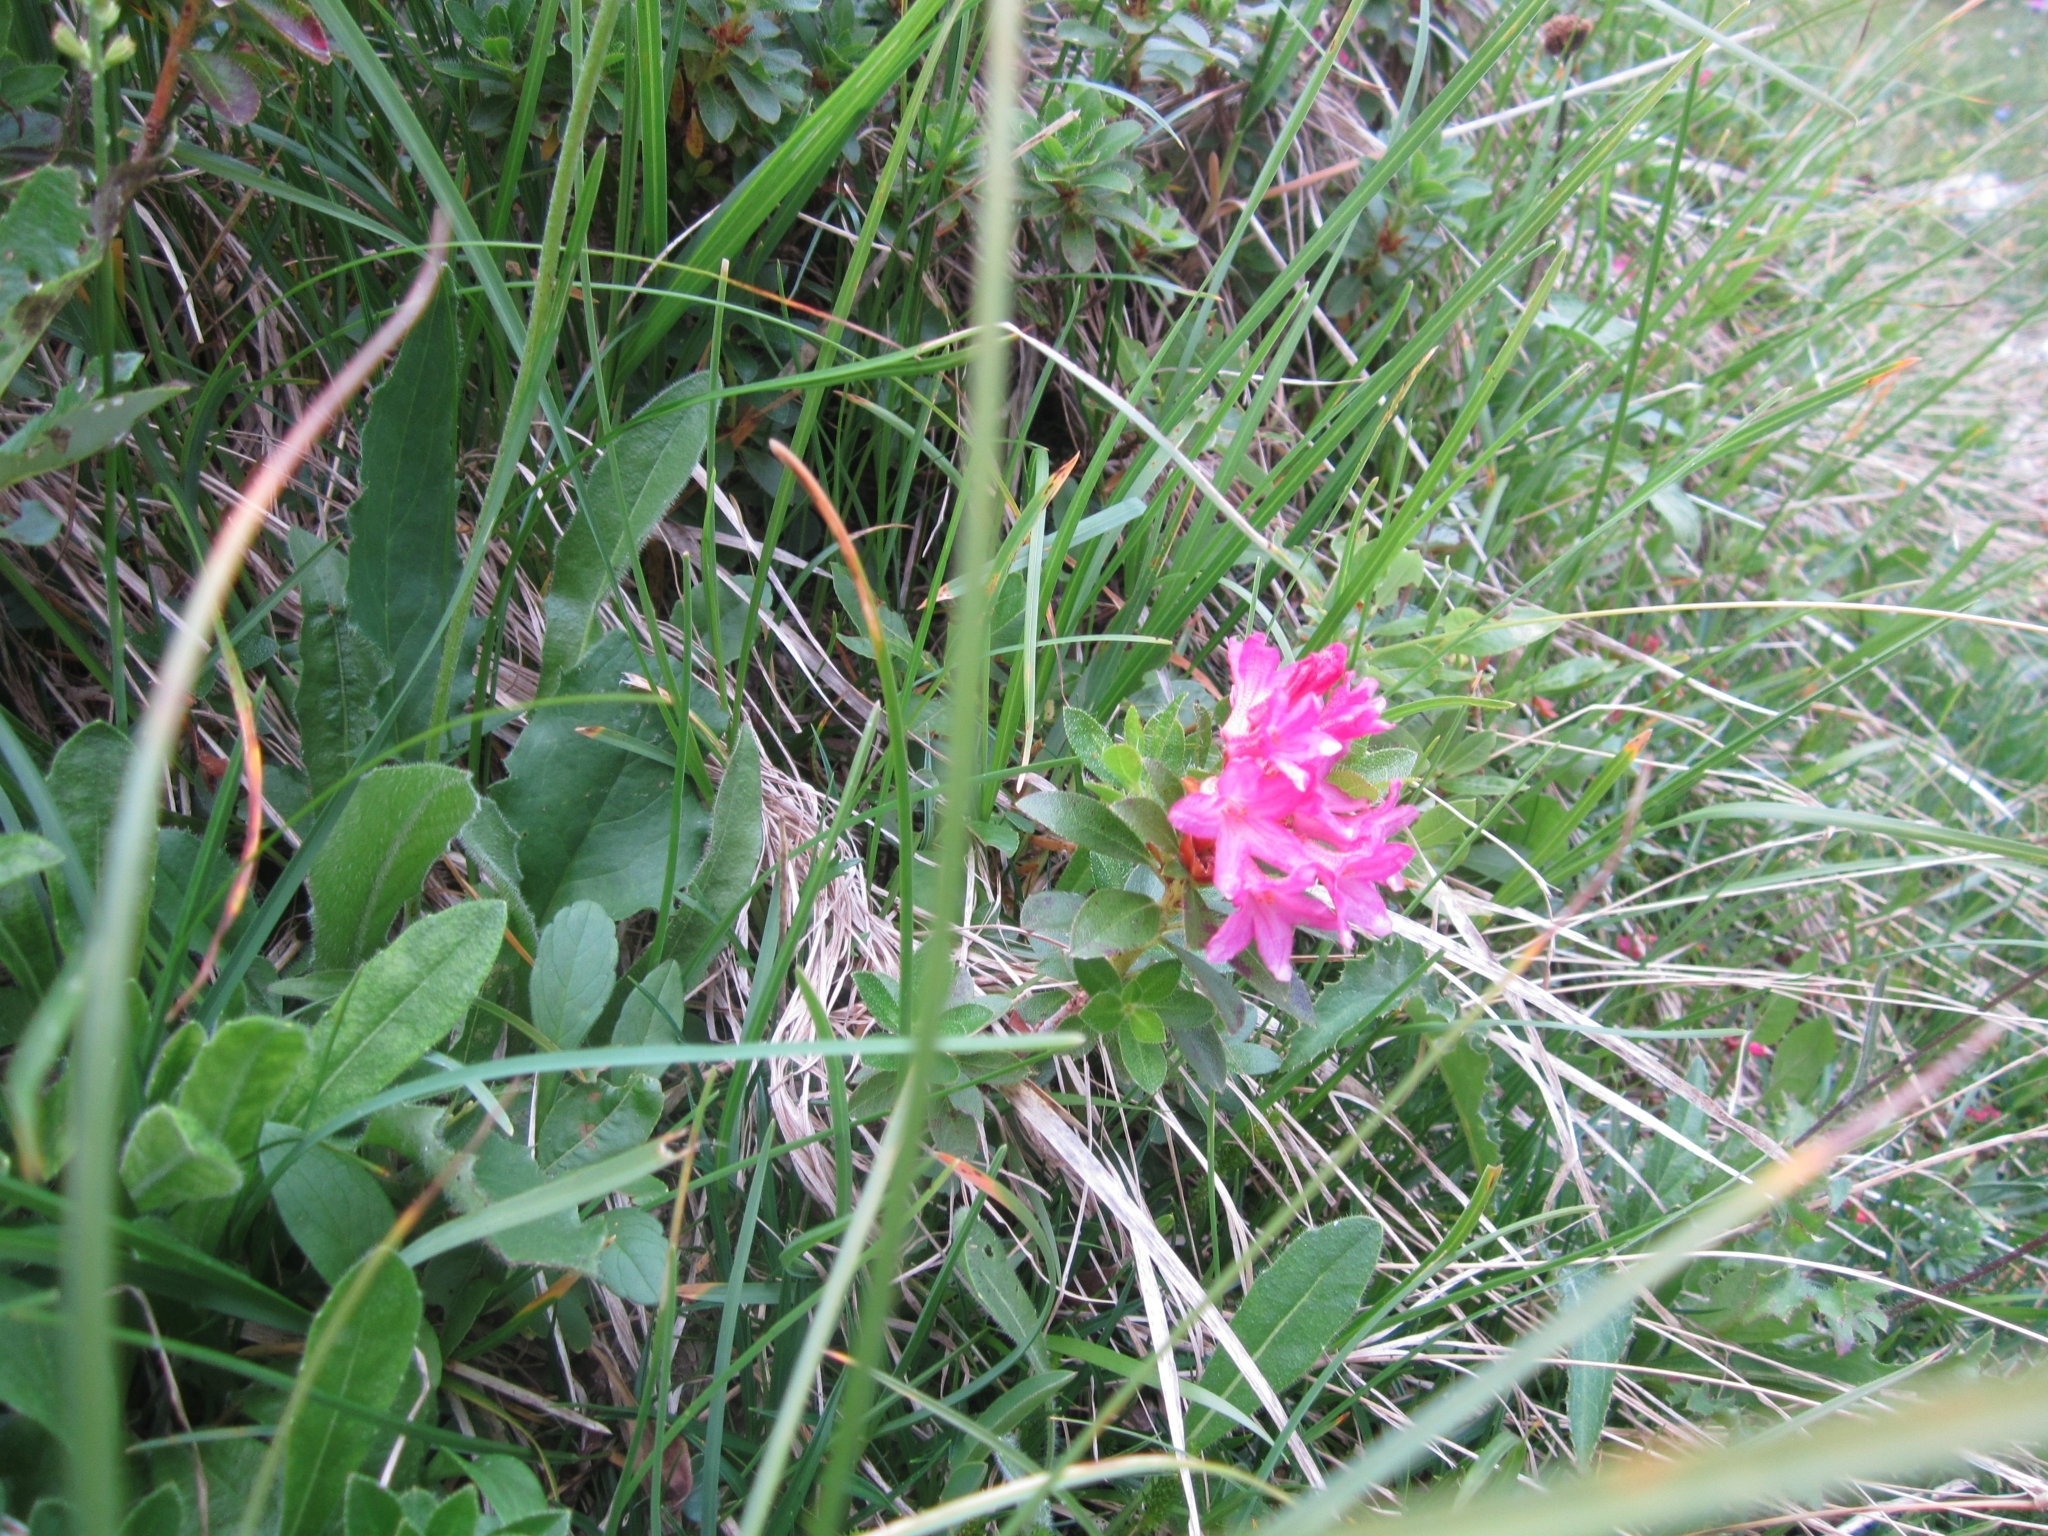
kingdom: Plantae
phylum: Tracheophyta
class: Magnoliopsida
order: Ericales
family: Ericaceae
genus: Rhododendron
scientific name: Rhododendron hirsutum
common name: Hairy alpenrose
